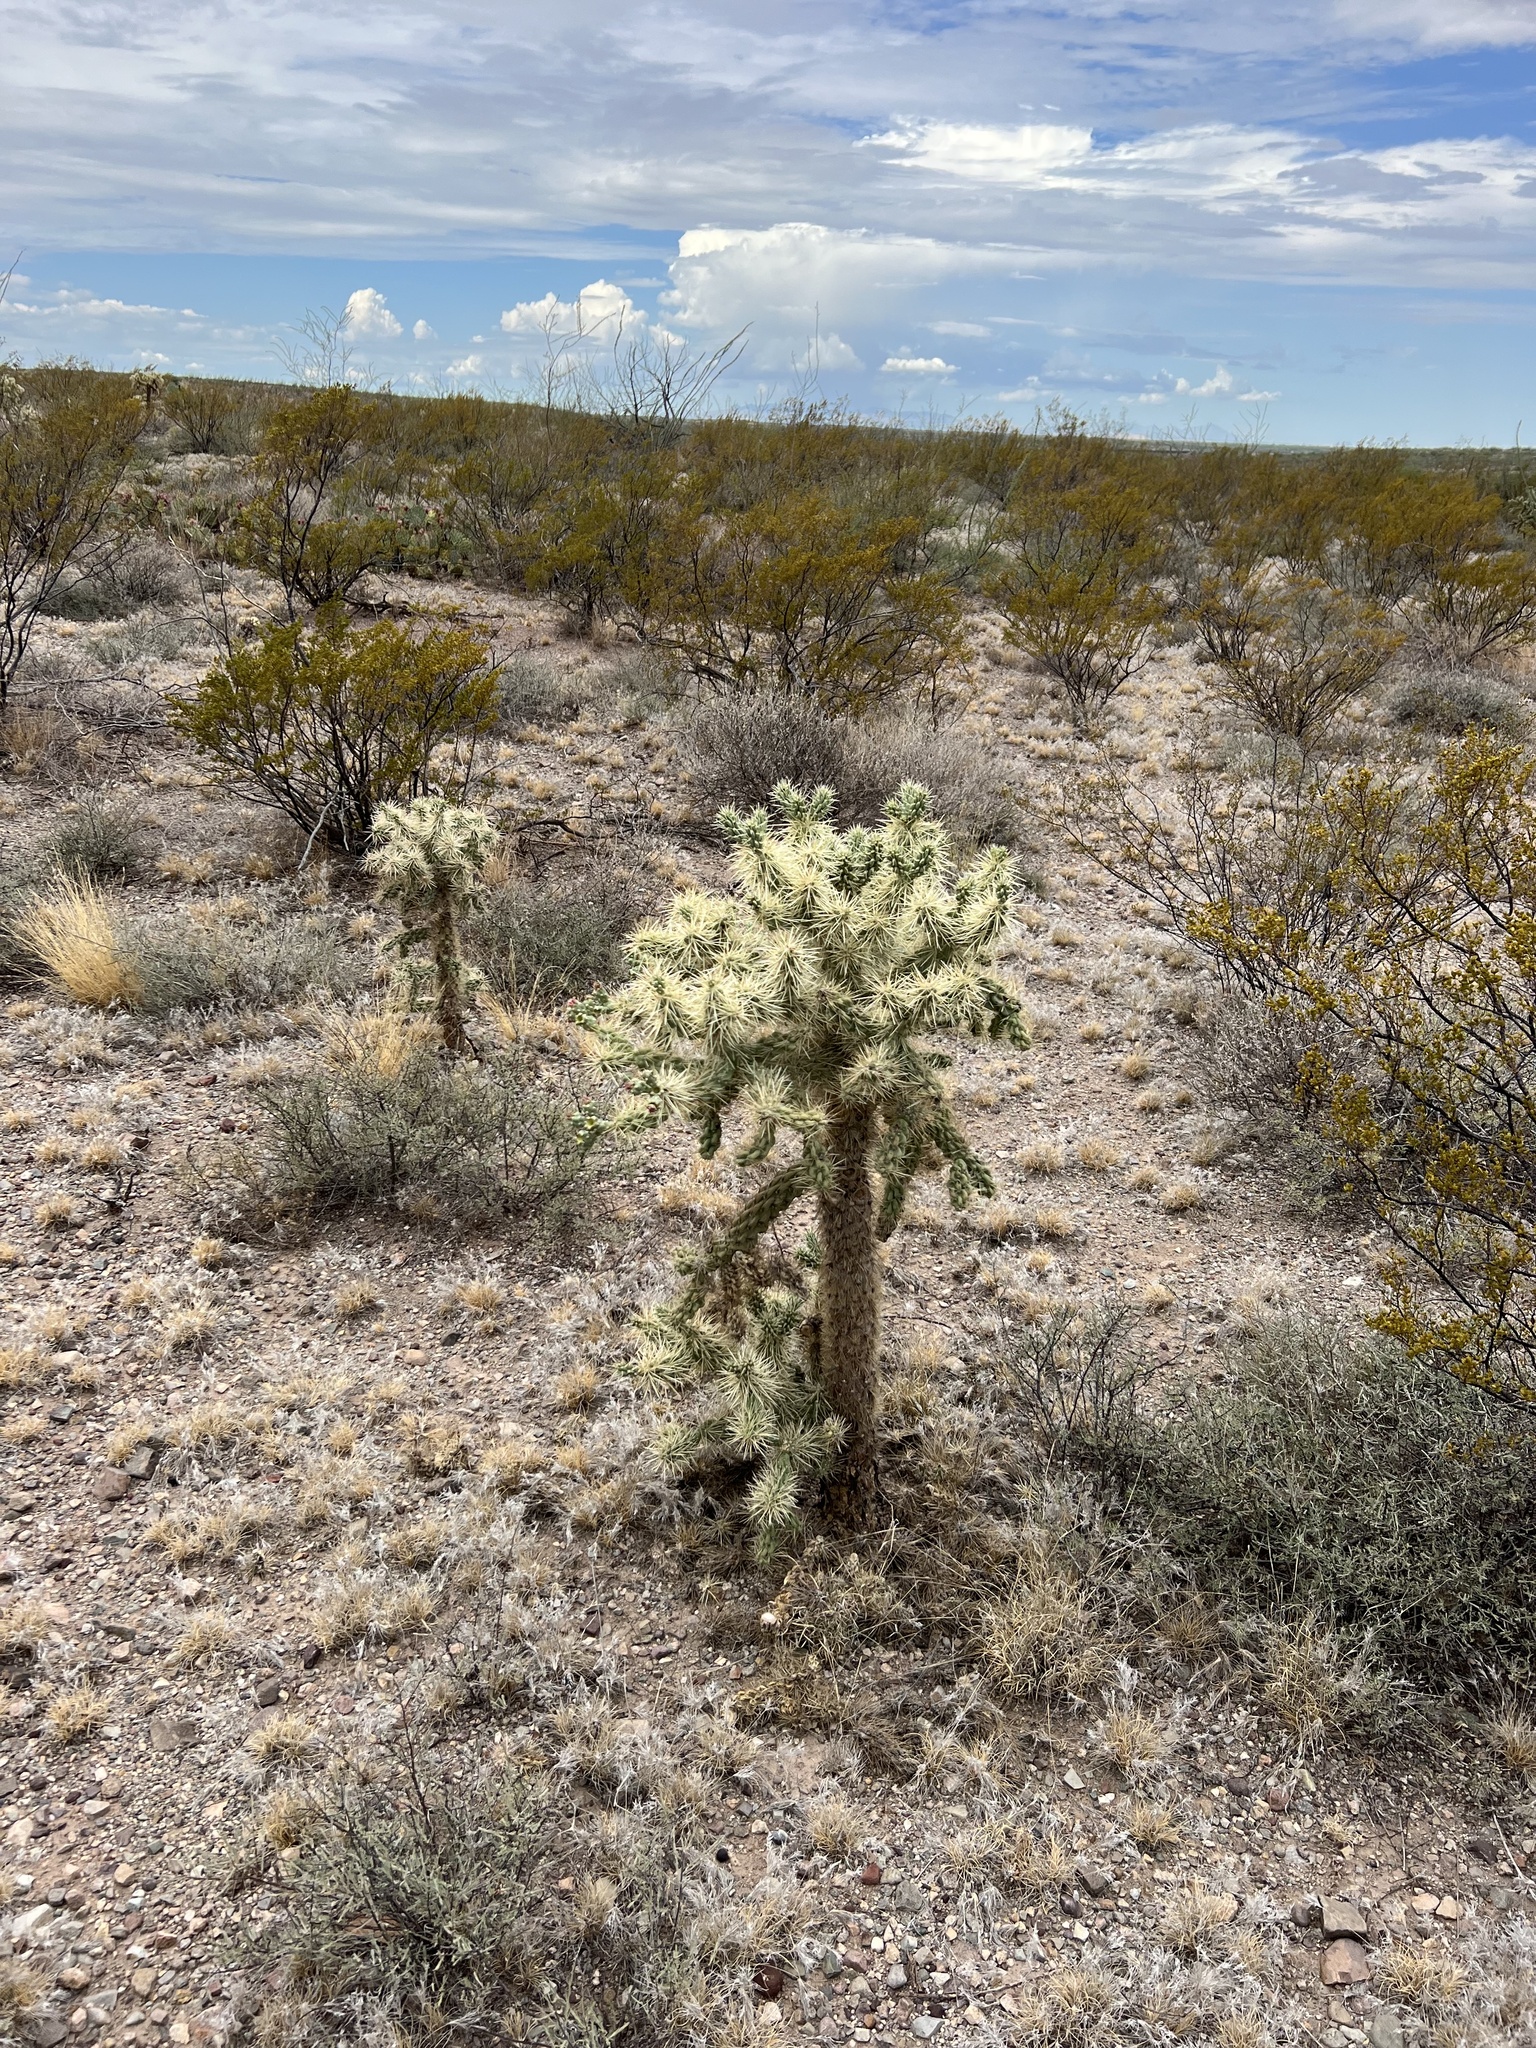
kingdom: Plantae
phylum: Tracheophyta
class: Magnoliopsida
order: Caryophyllales
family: Cactaceae
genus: Cylindropuntia
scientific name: Cylindropuntia fulgida
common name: Jumping cholla
